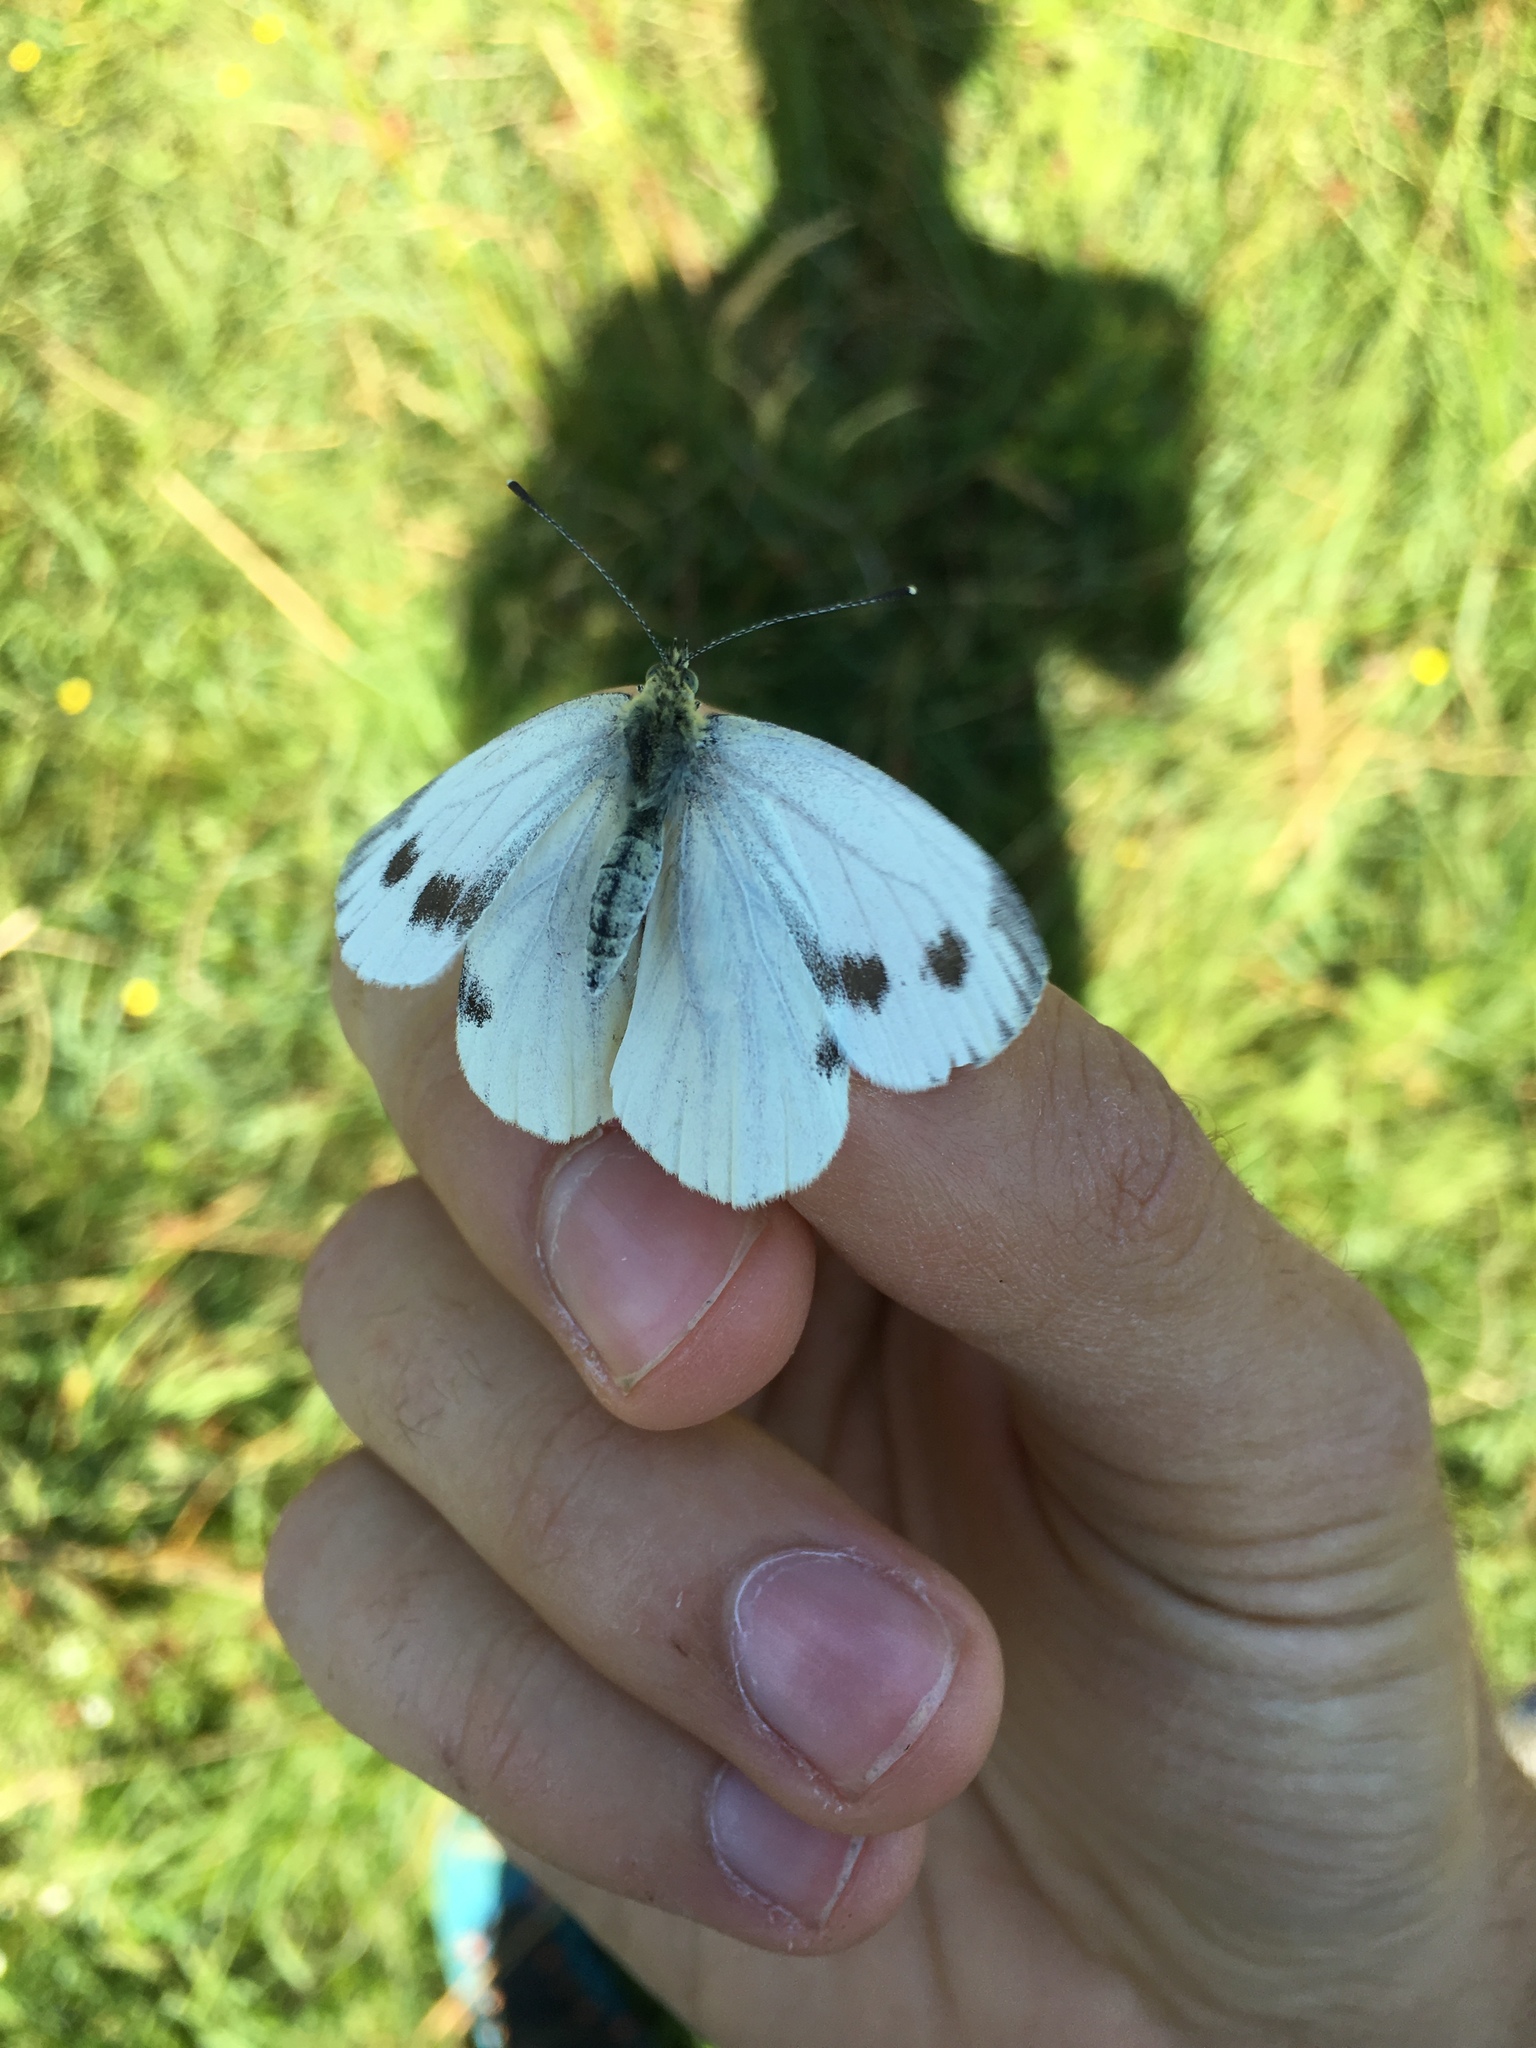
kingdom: Animalia
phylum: Arthropoda
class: Insecta
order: Lepidoptera
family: Pieridae
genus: Pieris
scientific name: Pieris napi
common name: Green-veined white
